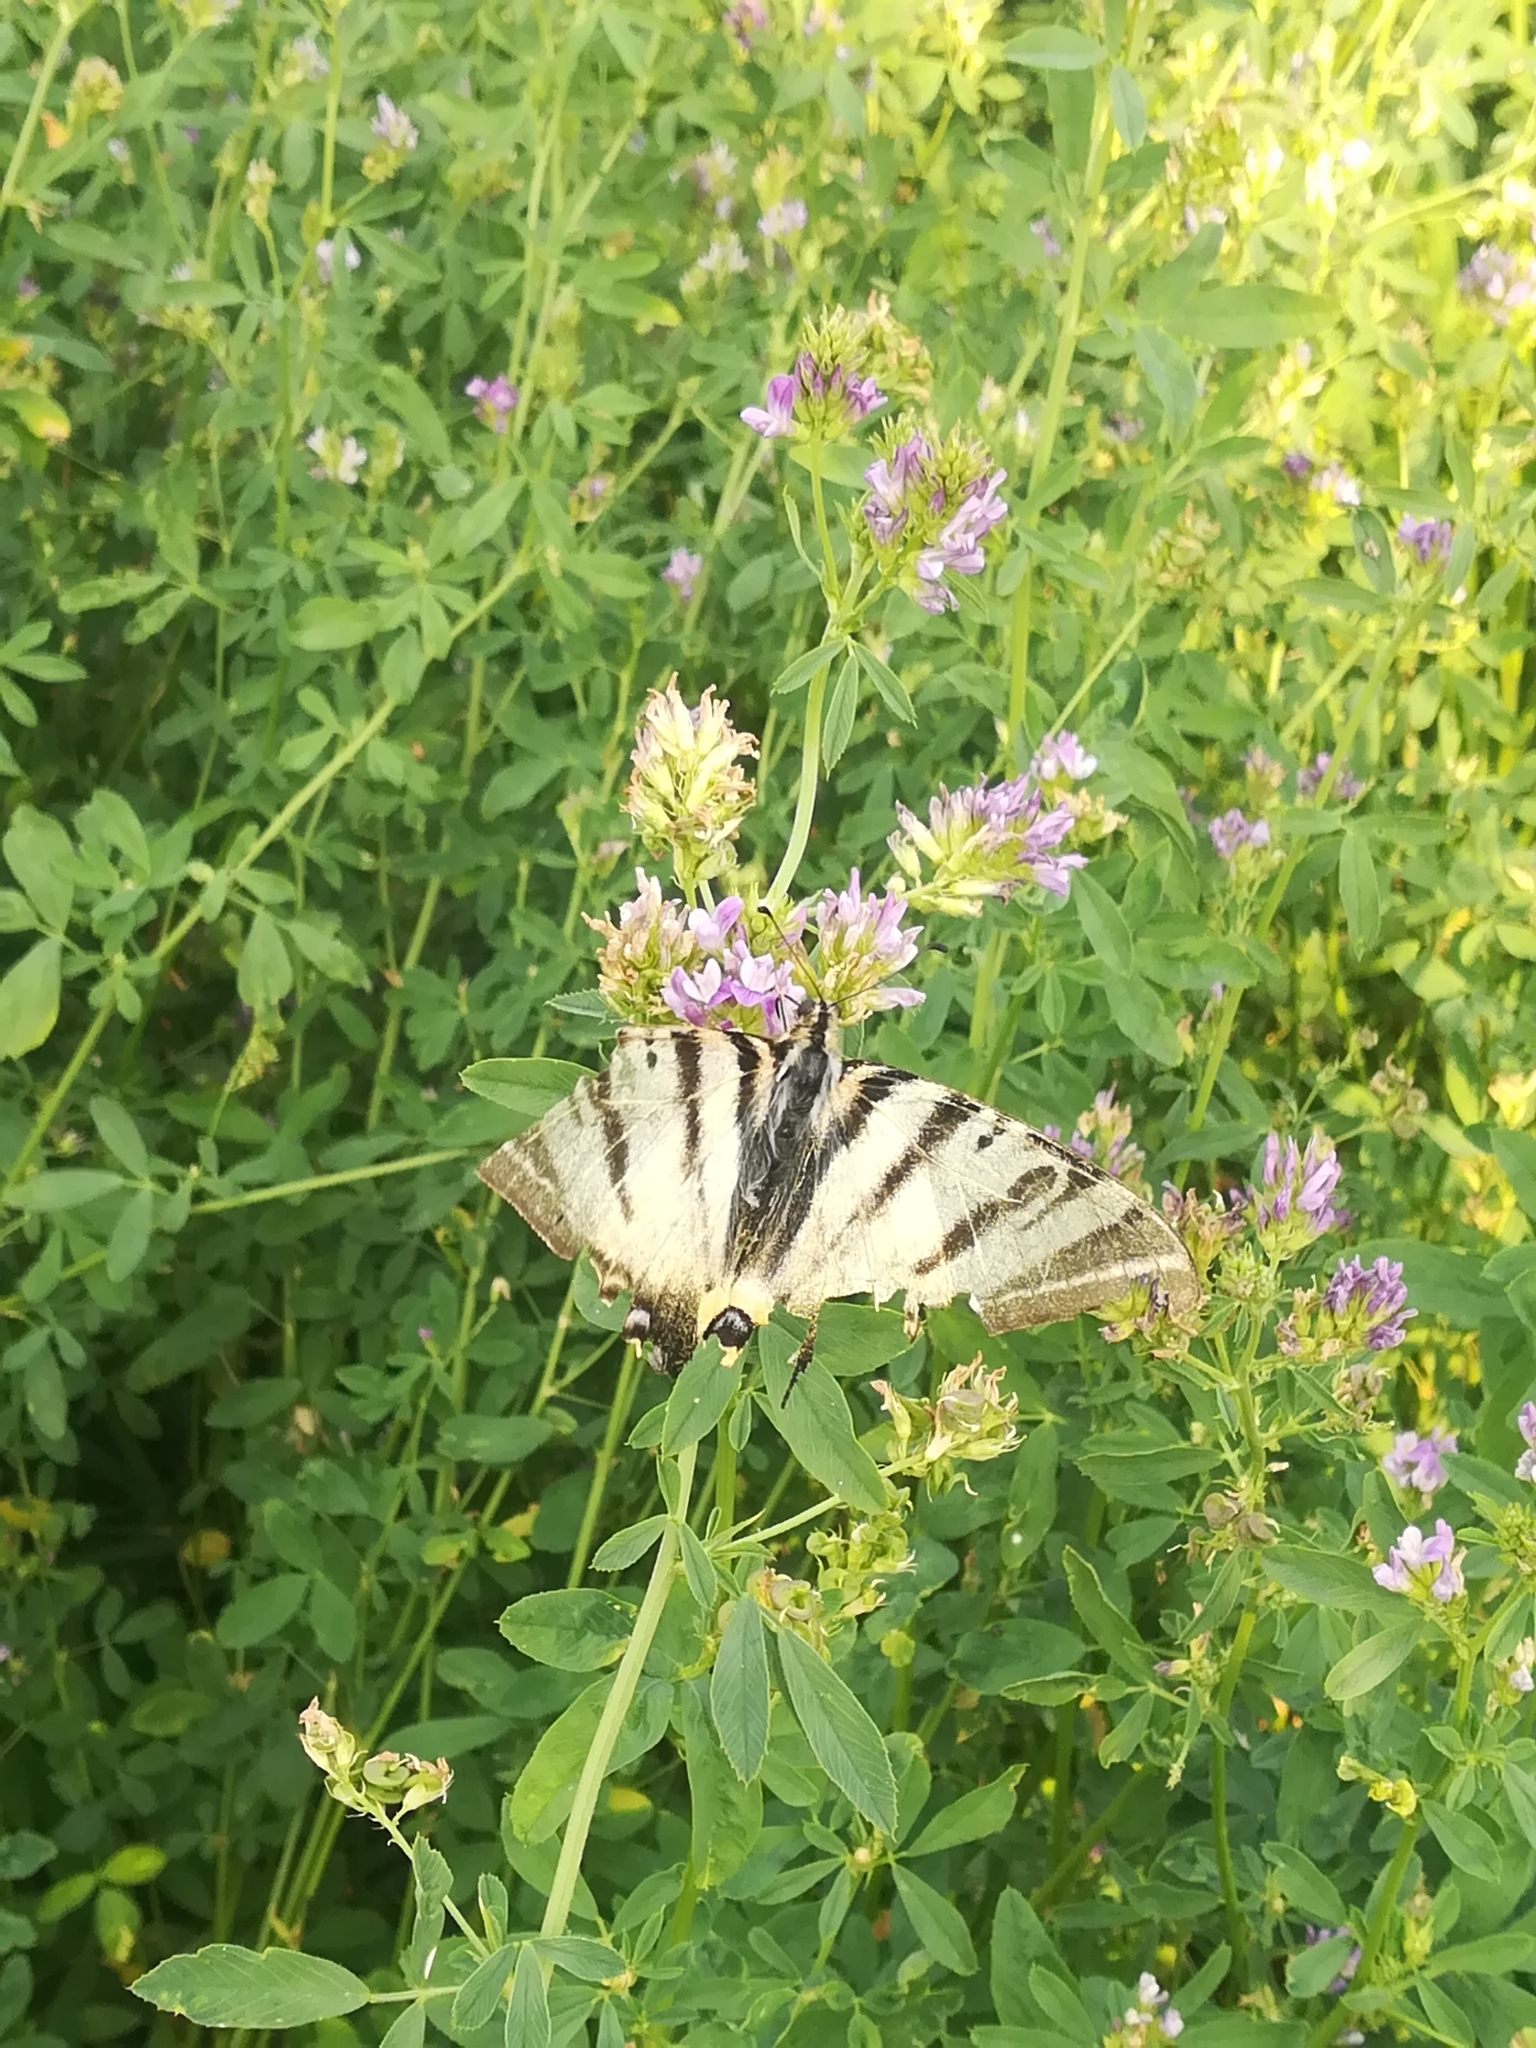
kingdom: Animalia
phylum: Arthropoda
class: Insecta
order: Lepidoptera
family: Papilionidae
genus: Iphiclides
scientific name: Iphiclides podalirius
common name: Scarce swallowtail
